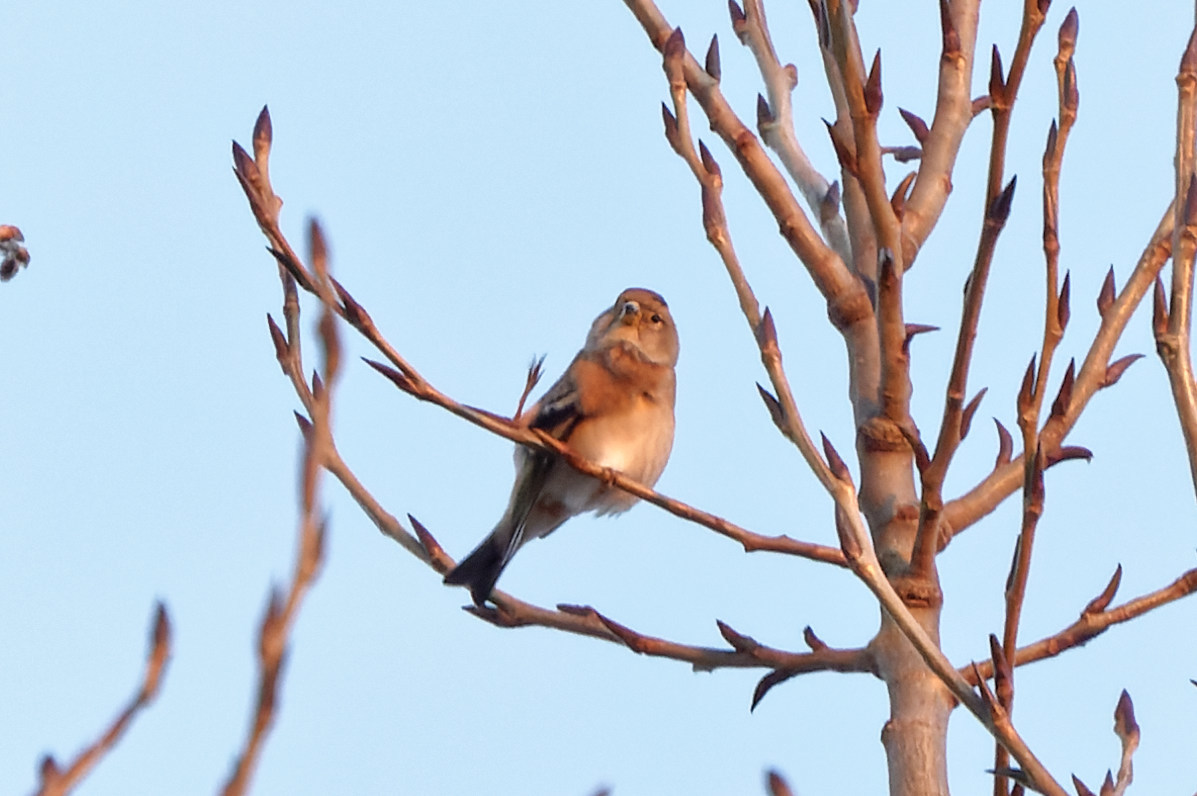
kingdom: Animalia
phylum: Chordata
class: Aves
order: Passeriformes
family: Fringillidae
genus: Fringilla
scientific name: Fringilla montifringilla
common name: Brambling
